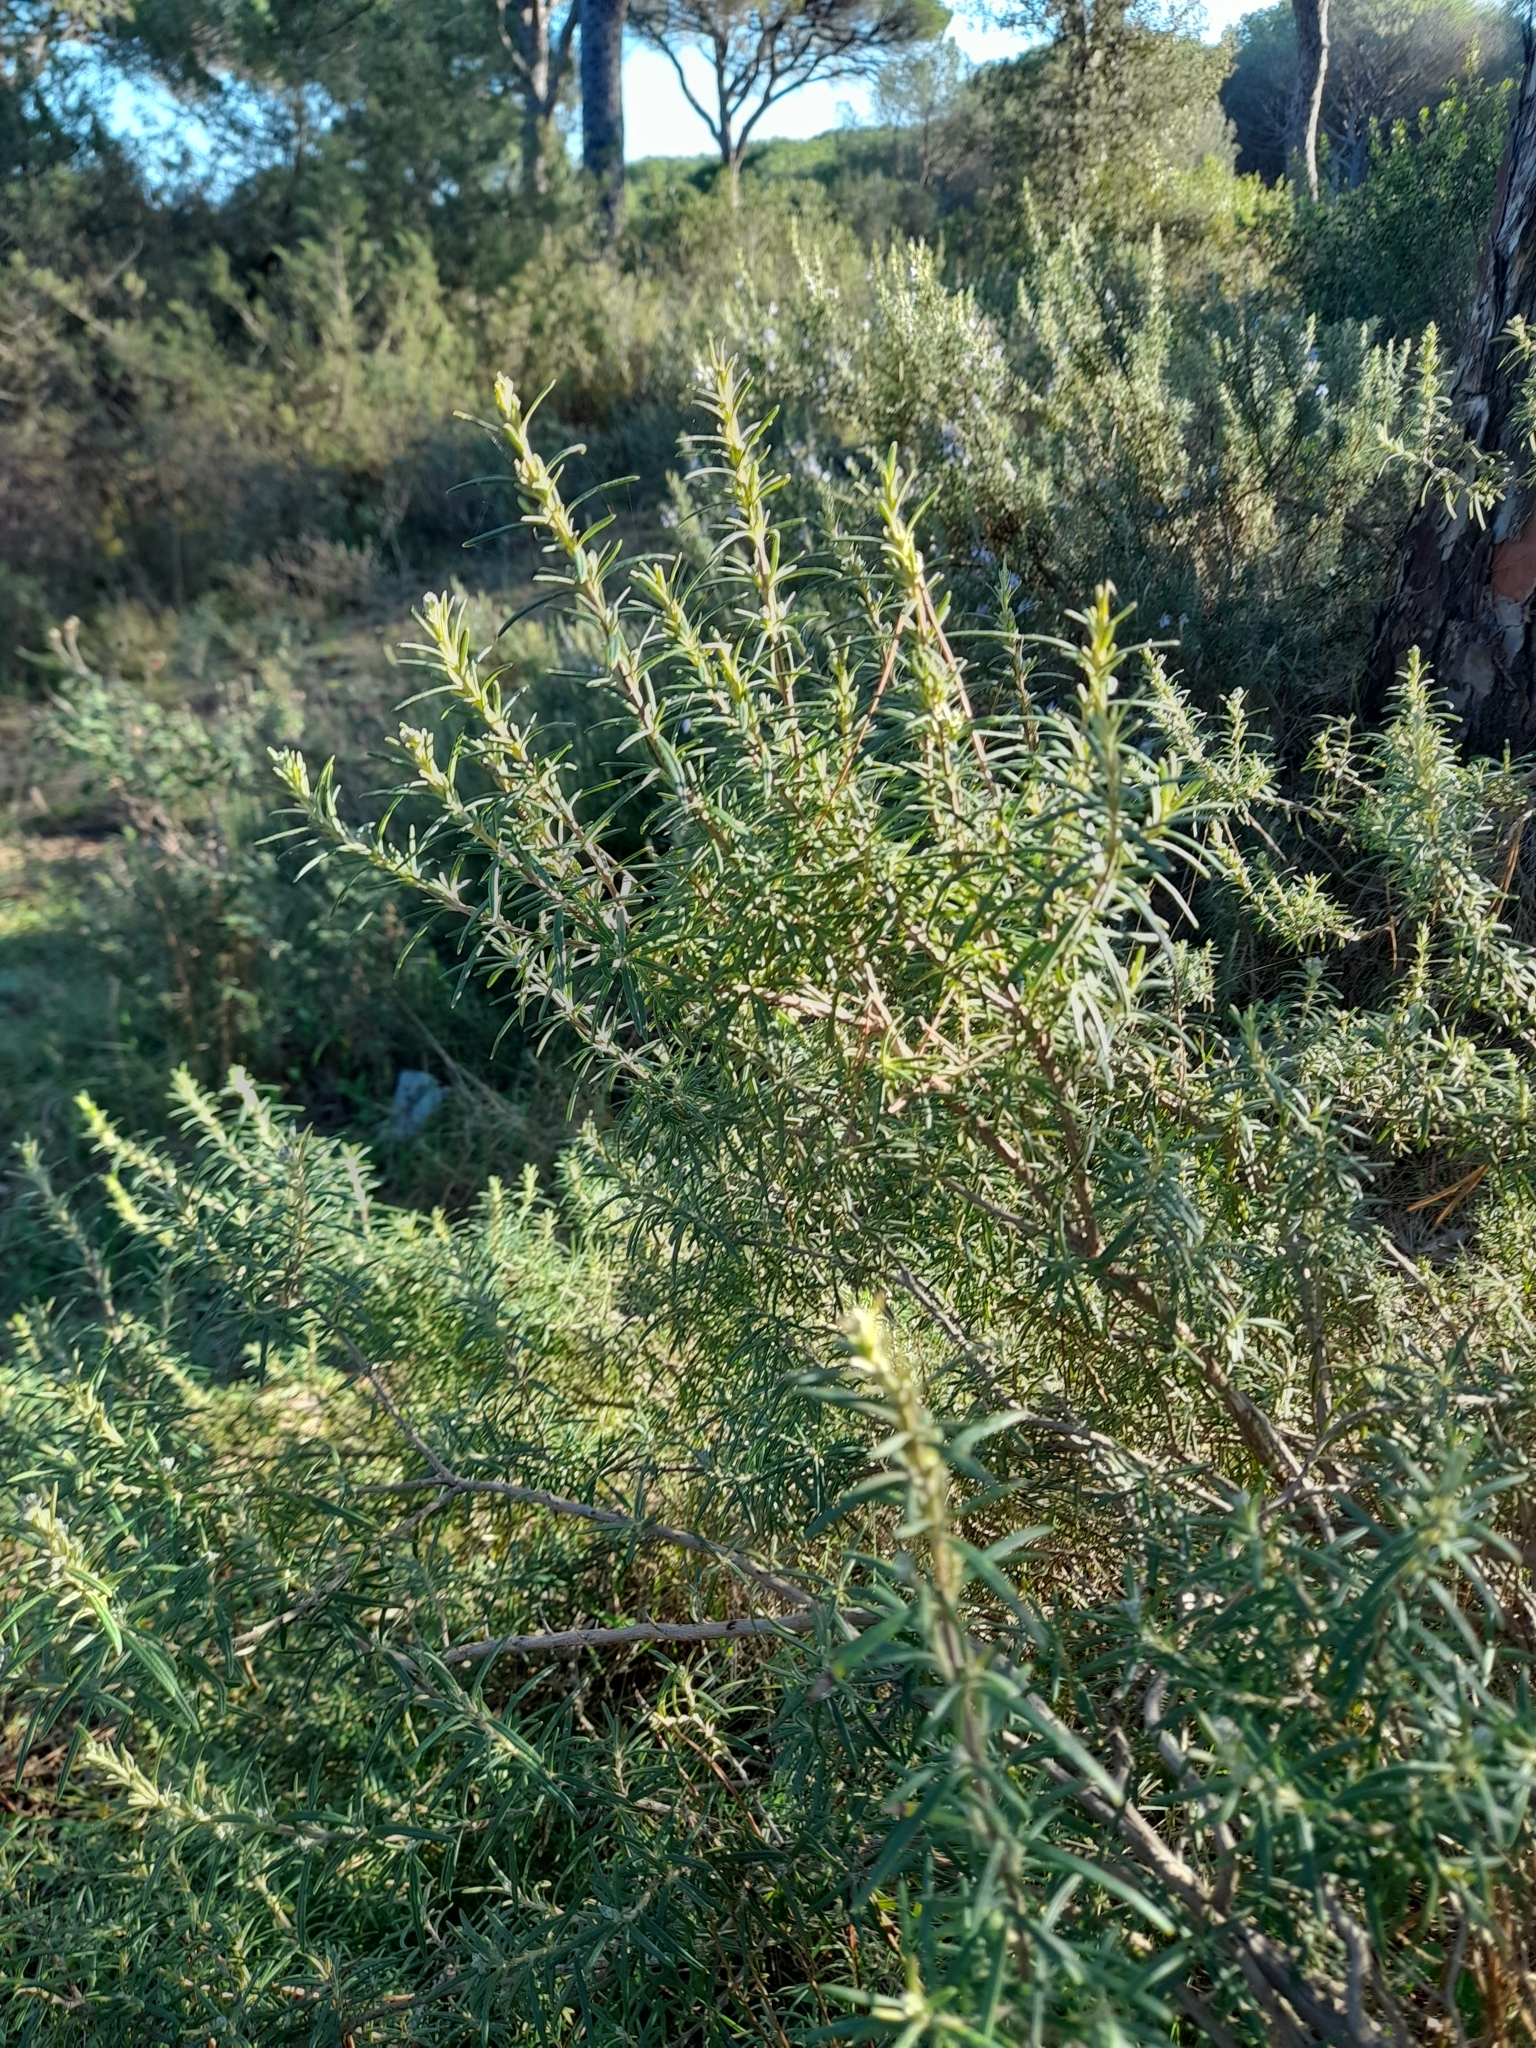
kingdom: Plantae
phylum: Tracheophyta
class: Magnoliopsida
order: Lamiales
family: Lamiaceae
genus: Salvia
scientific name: Salvia rosmarinus
